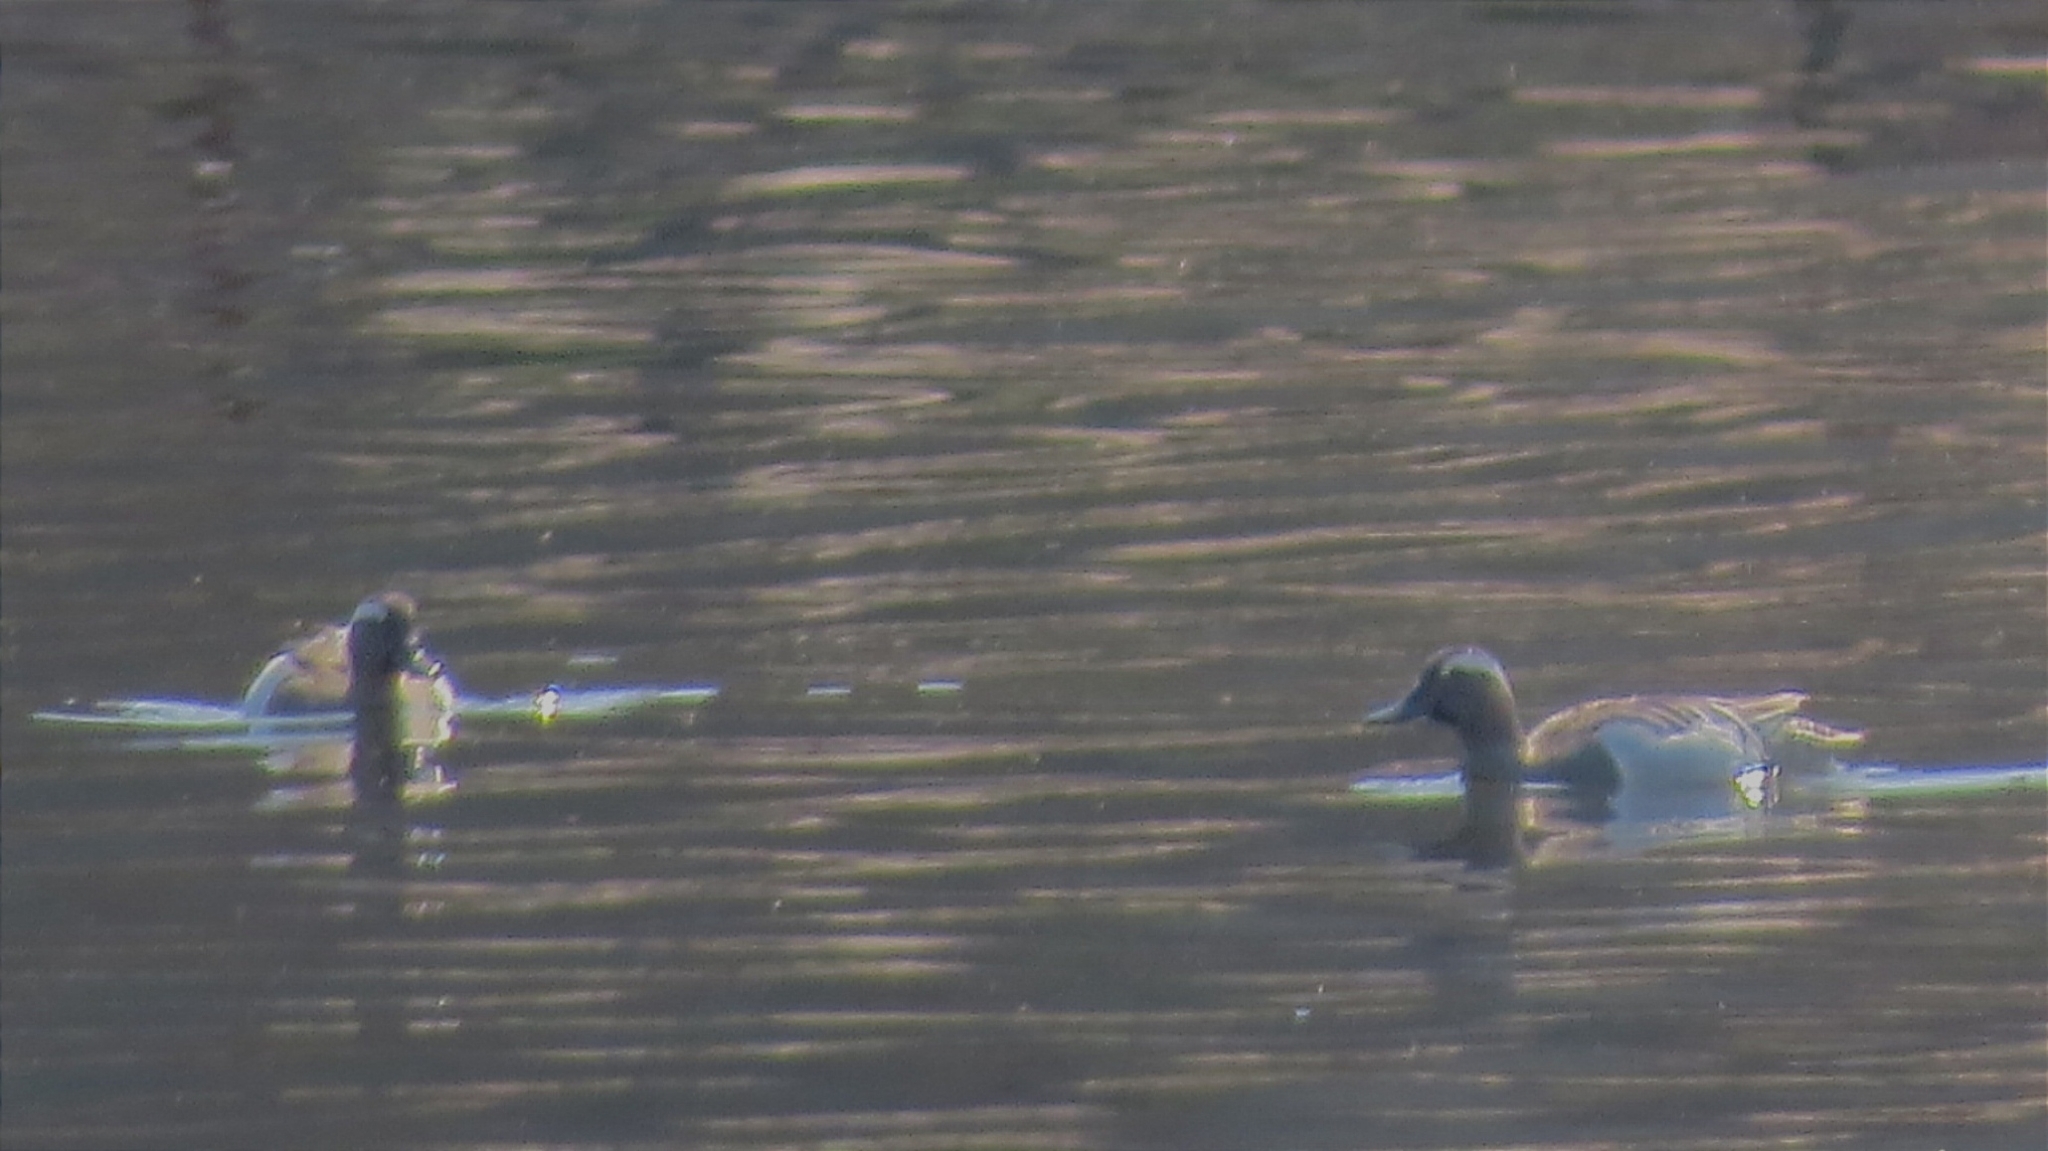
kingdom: Animalia
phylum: Chordata
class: Aves
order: Anseriformes
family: Anatidae
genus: Spatula
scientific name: Spatula querquedula
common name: Garganey
